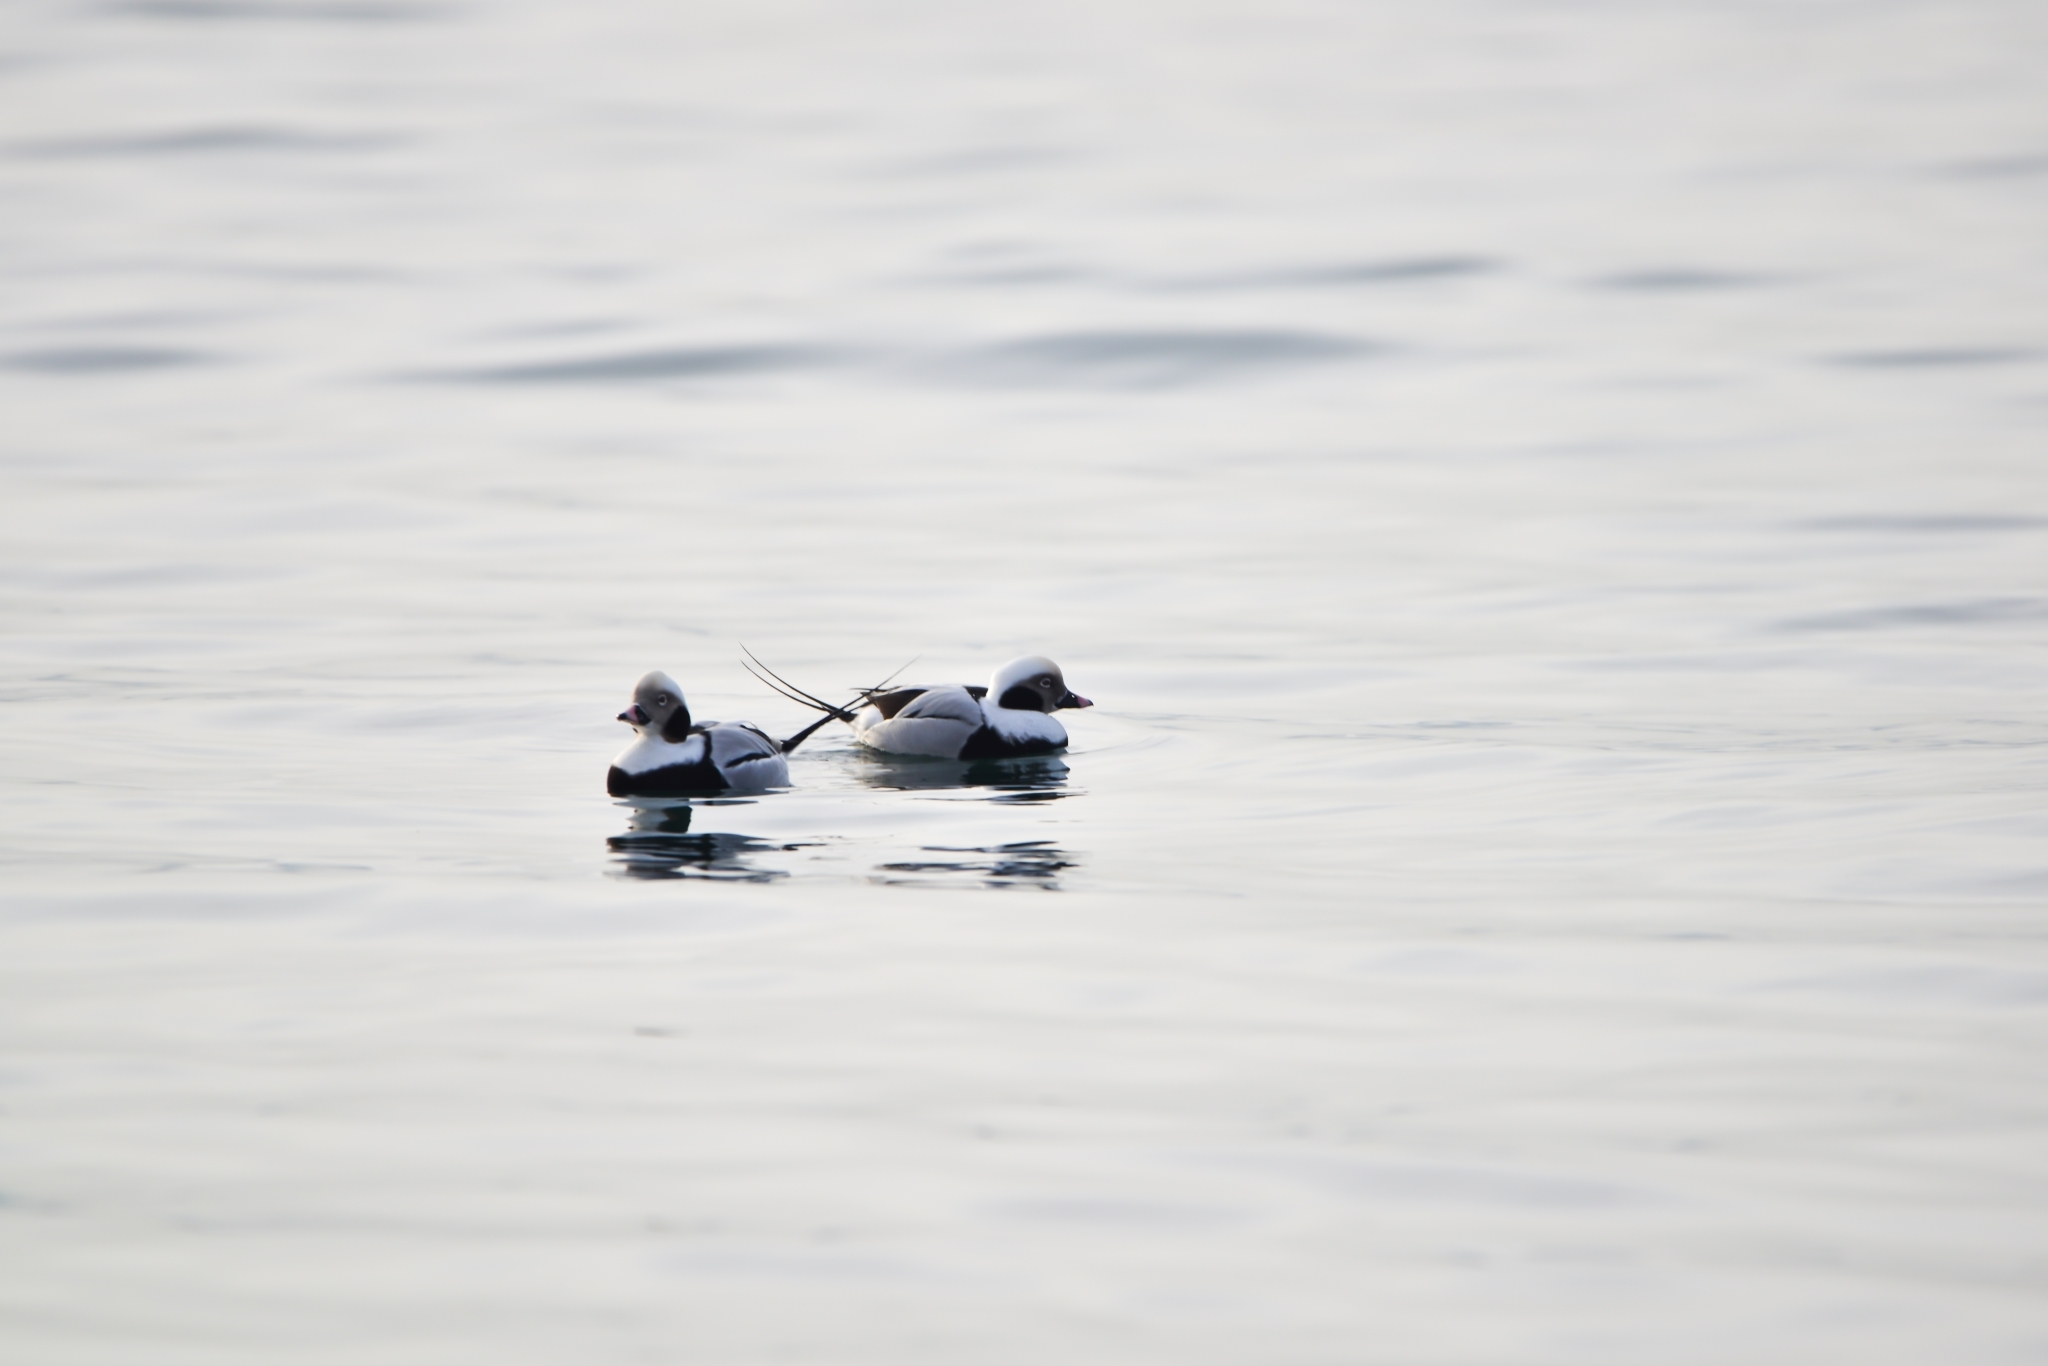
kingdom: Animalia
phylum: Chordata
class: Aves
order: Anseriformes
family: Anatidae
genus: Clangula
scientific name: Clangula hyemalis
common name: Long-tailed duck
